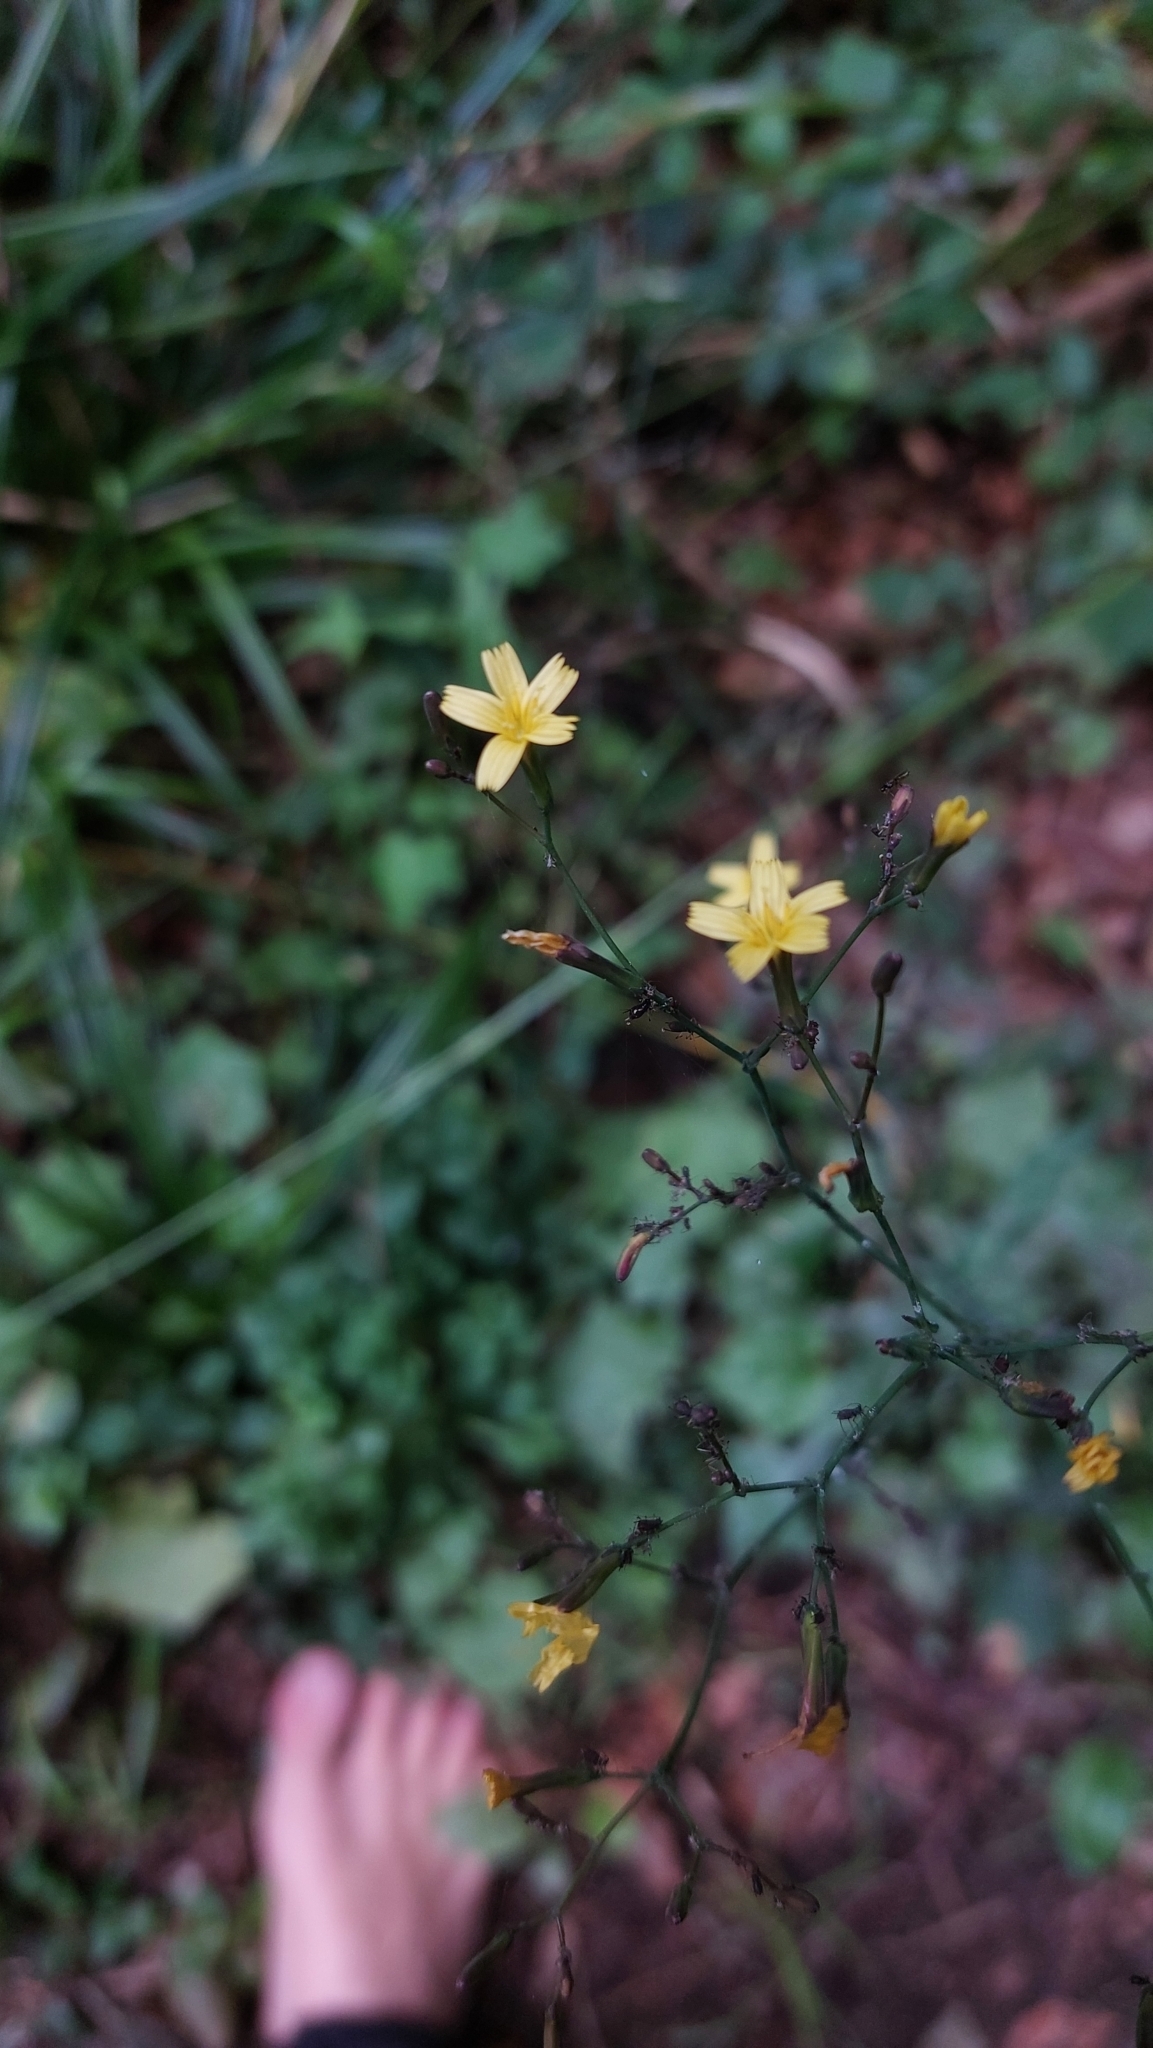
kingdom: Plantae
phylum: Tracheophyta
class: Magnoliopsida
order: Asterales
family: Asteraceae
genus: Mycelis
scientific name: Mycelis muralis
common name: Wall lettuce
